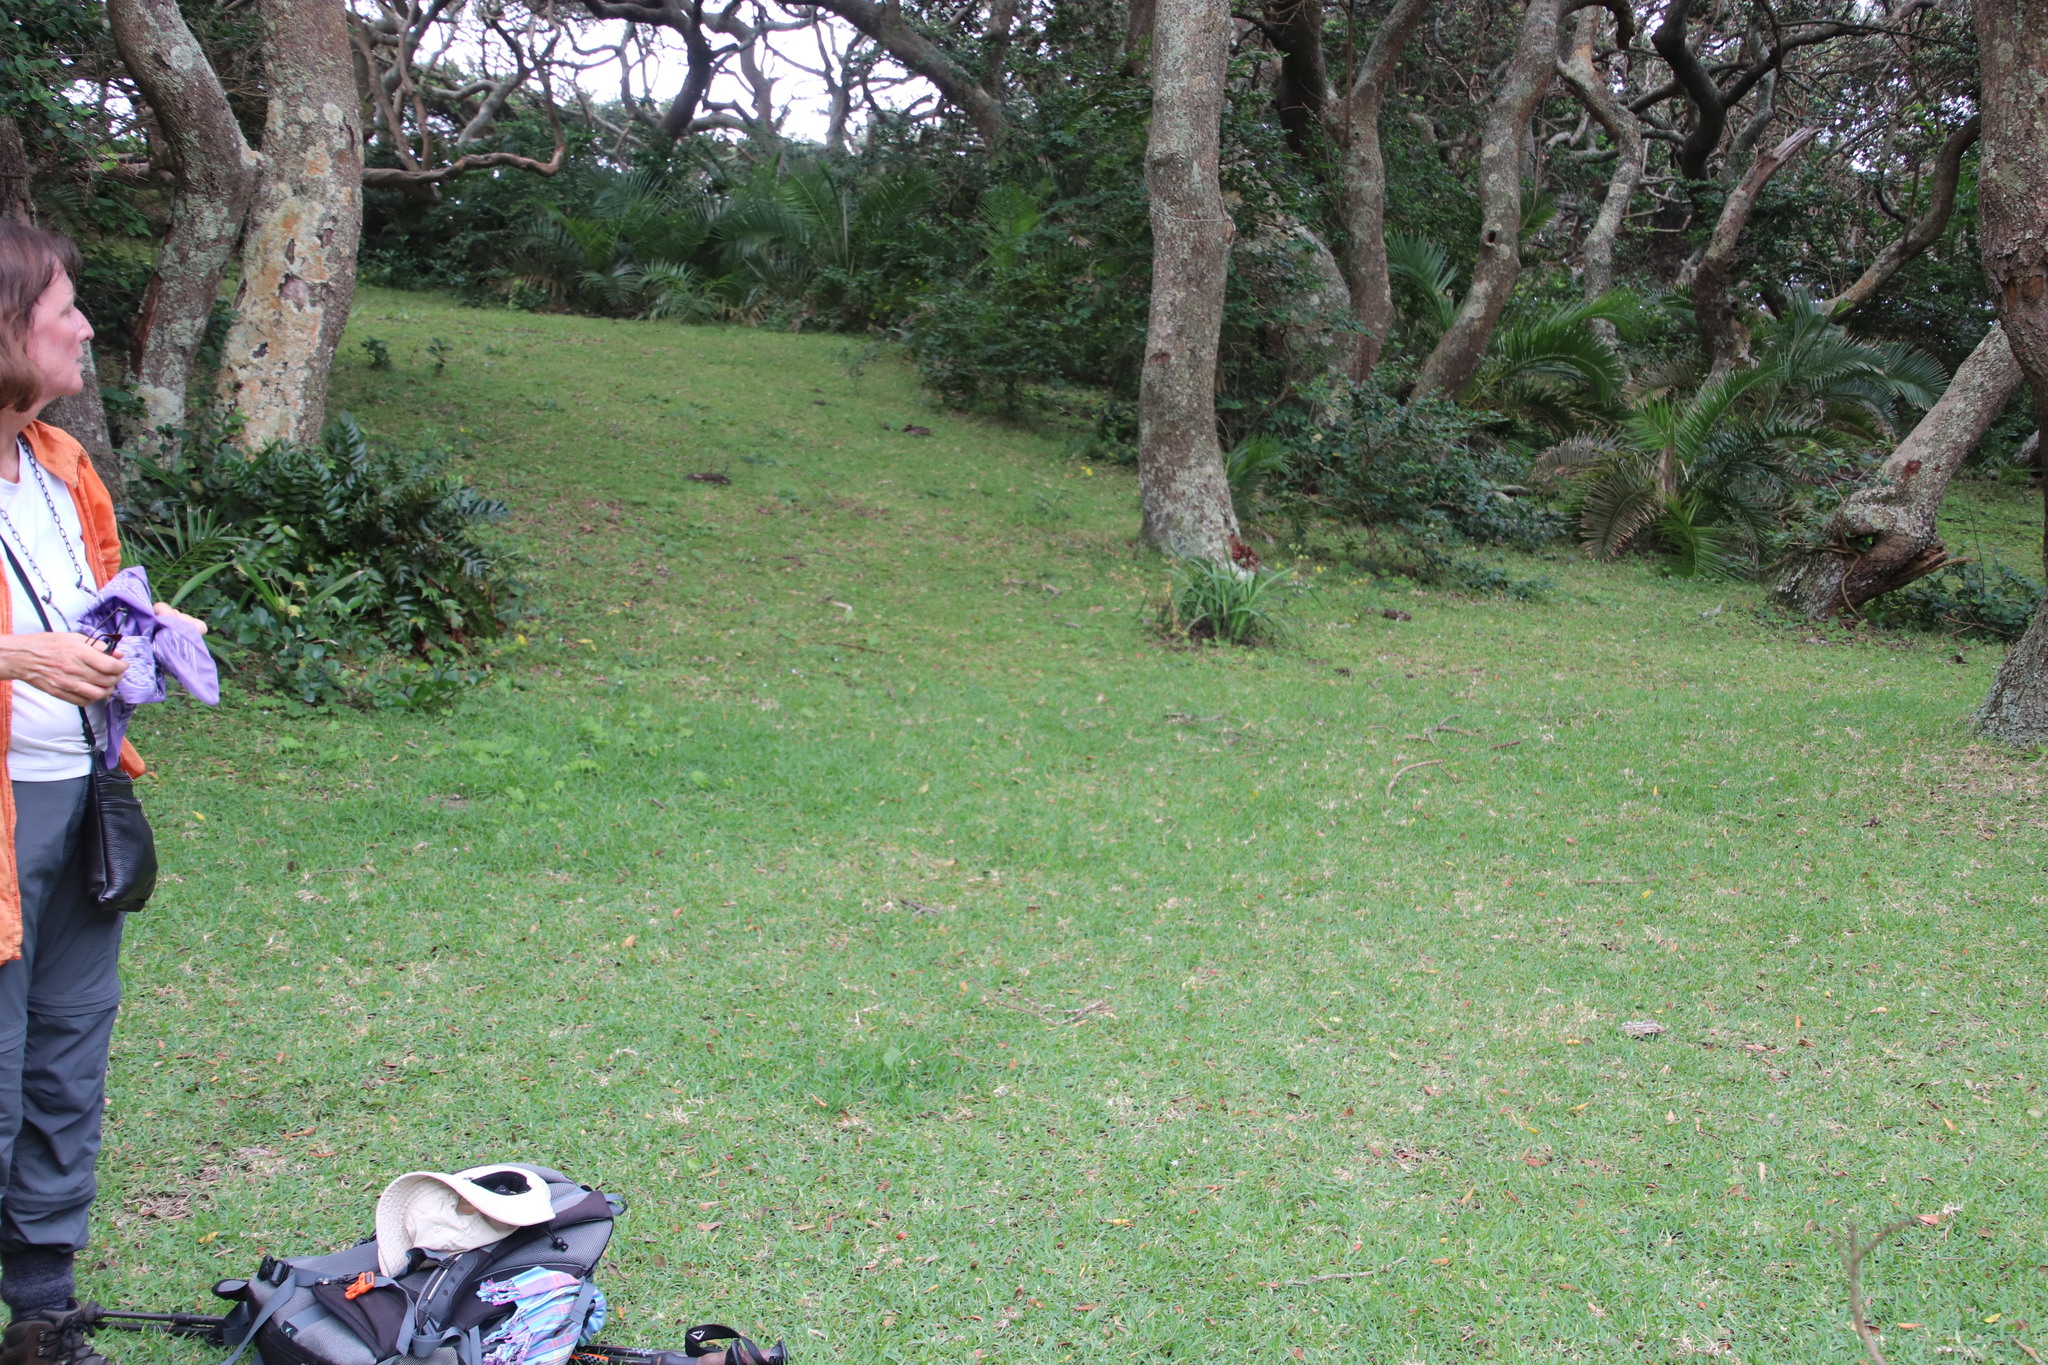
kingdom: Plantae
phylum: Tracheophyta
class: Liliopsida
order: Poales
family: Poaceae
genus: Stenotaphrum
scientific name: Stenotaphrum secundatum
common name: St. augustine grass
